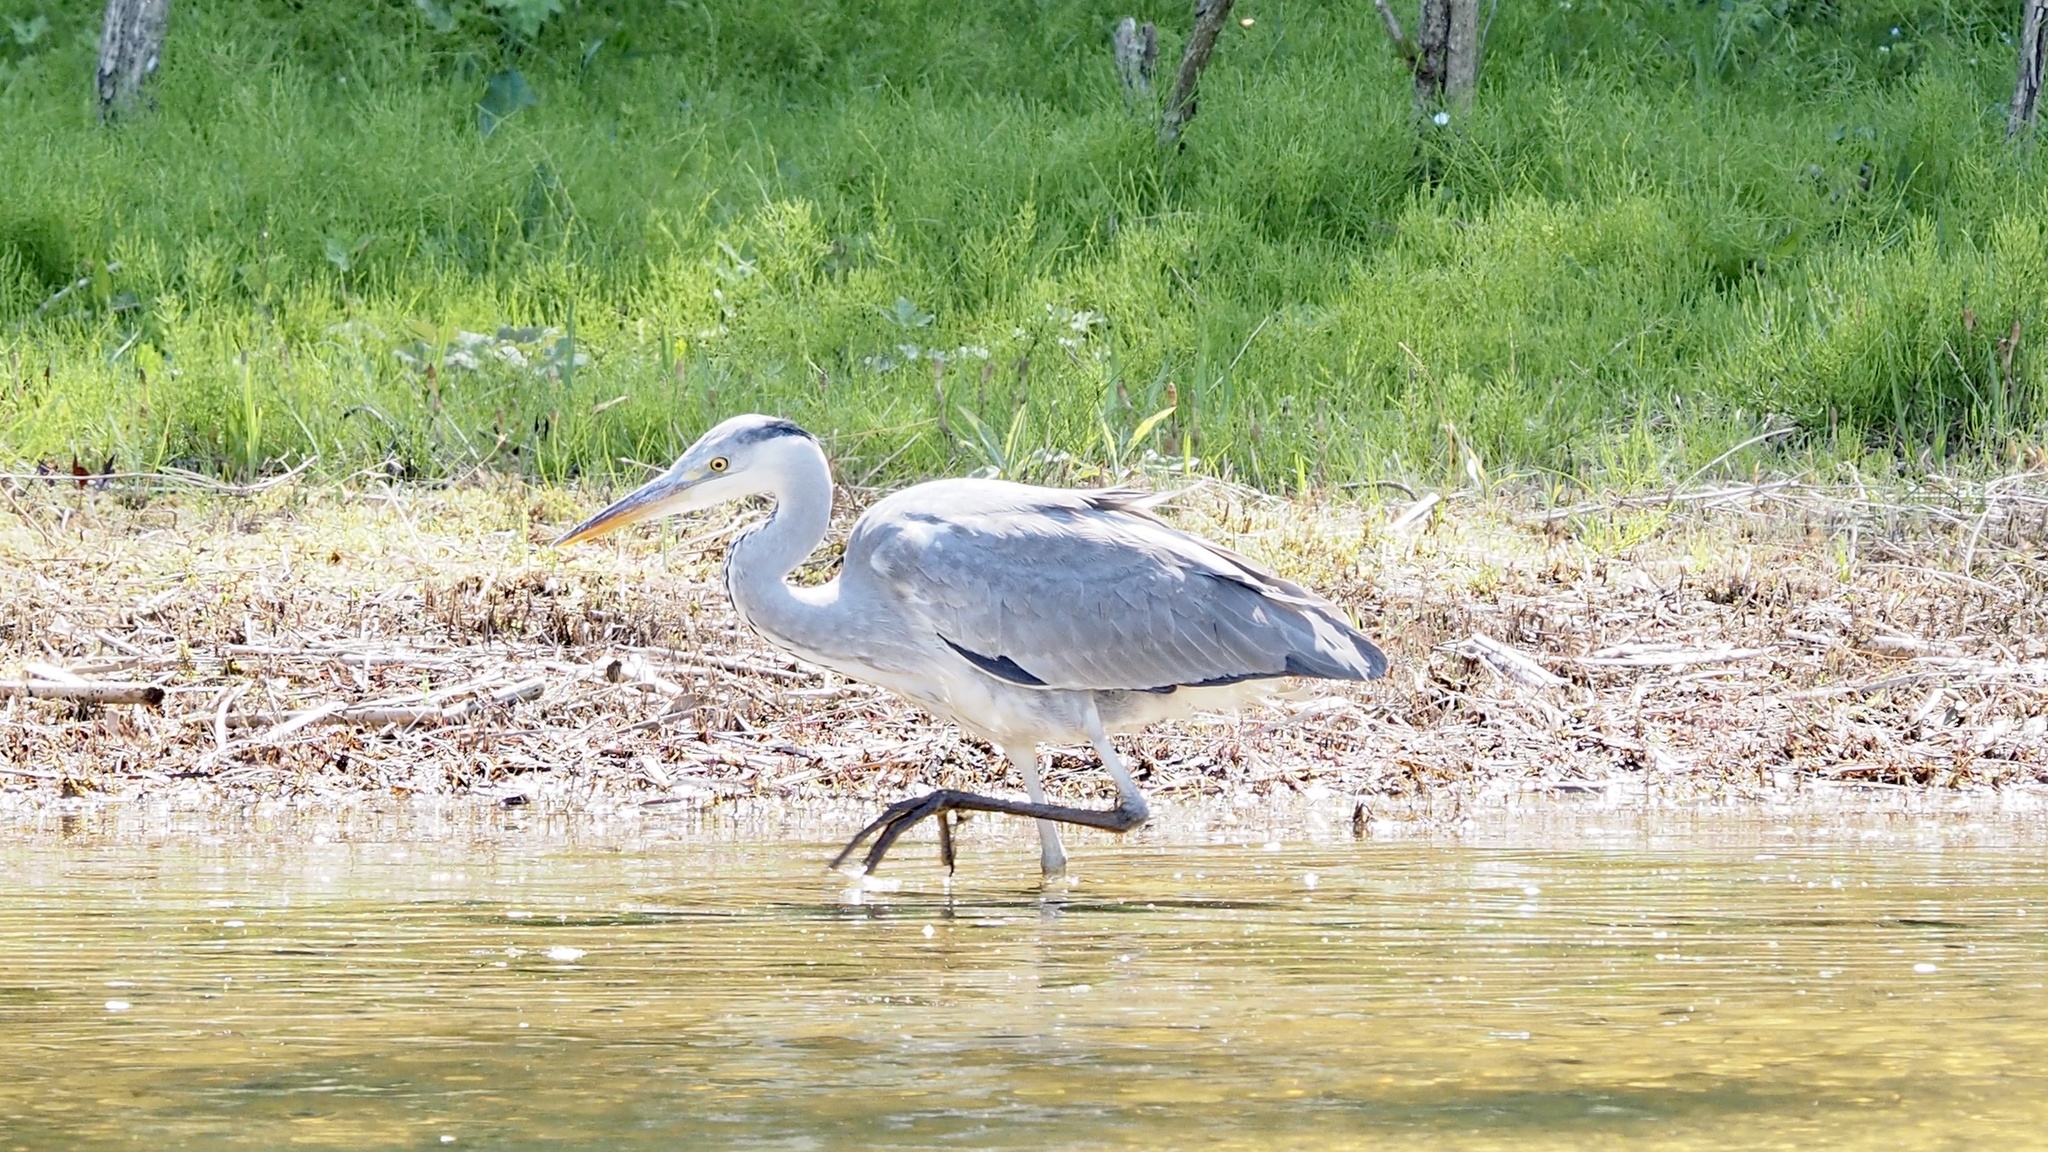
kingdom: Animalia
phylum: Chordata
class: Aves
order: Pelecaniformes
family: Ardeidae
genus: Ardea
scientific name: Ardea cinerea
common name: Grey heron
